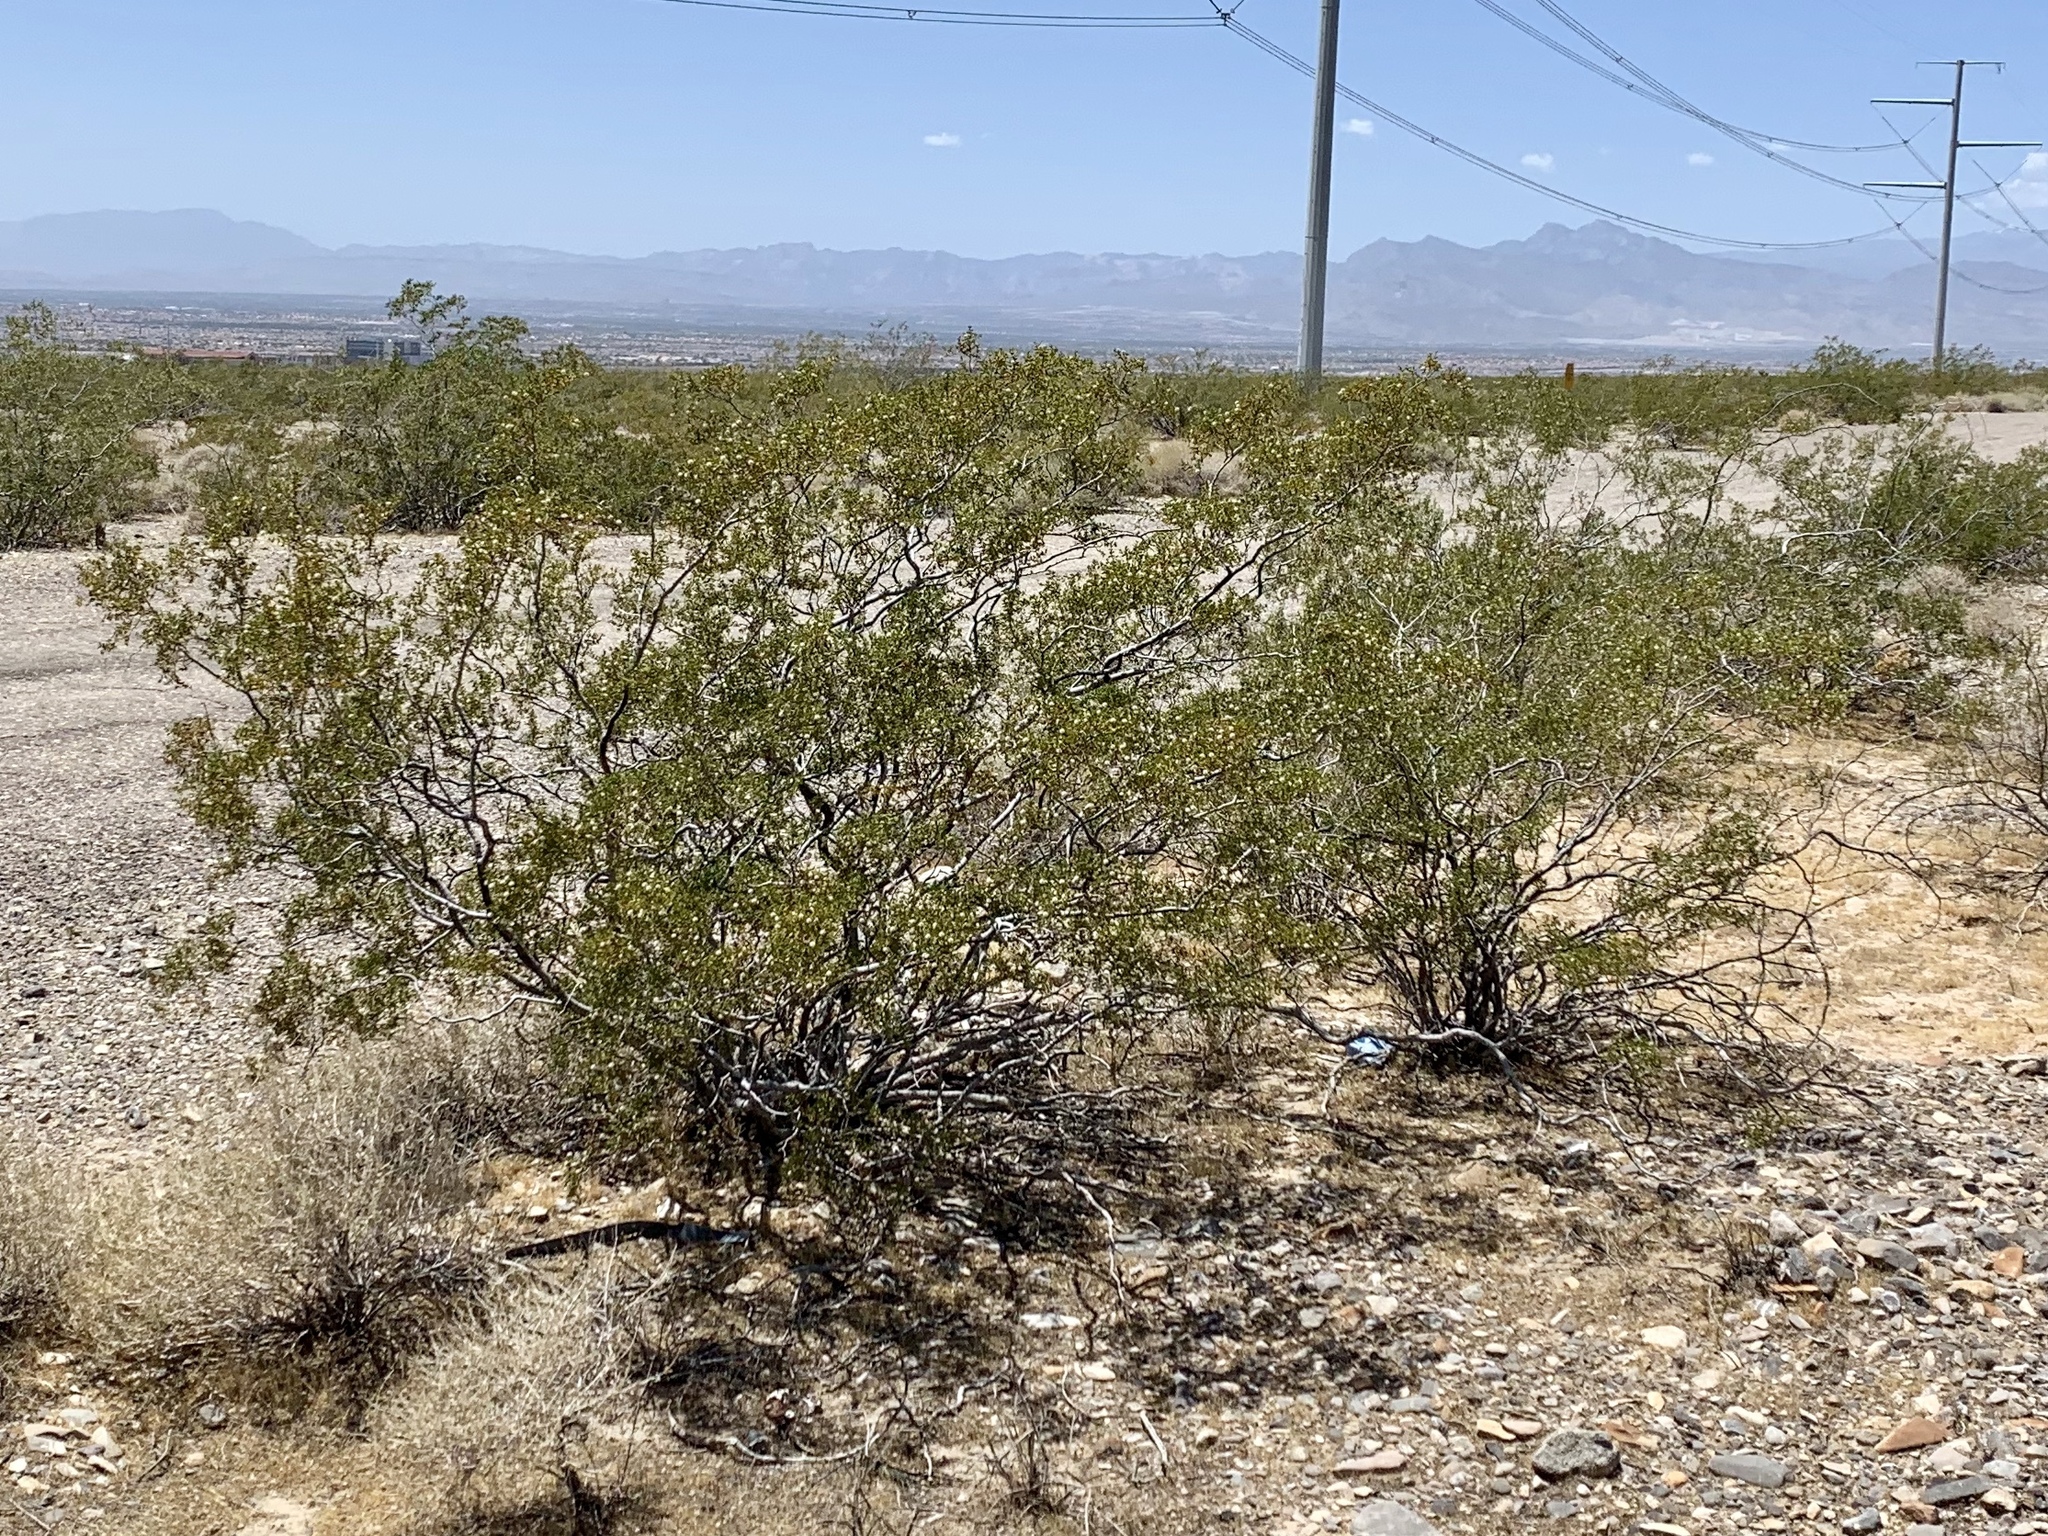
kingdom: Plantae
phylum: Tracheophyta
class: Magnoliopsida
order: Zygophyllales
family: Zygophyllaceae
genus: Larrea
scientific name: Larrea tridentata
